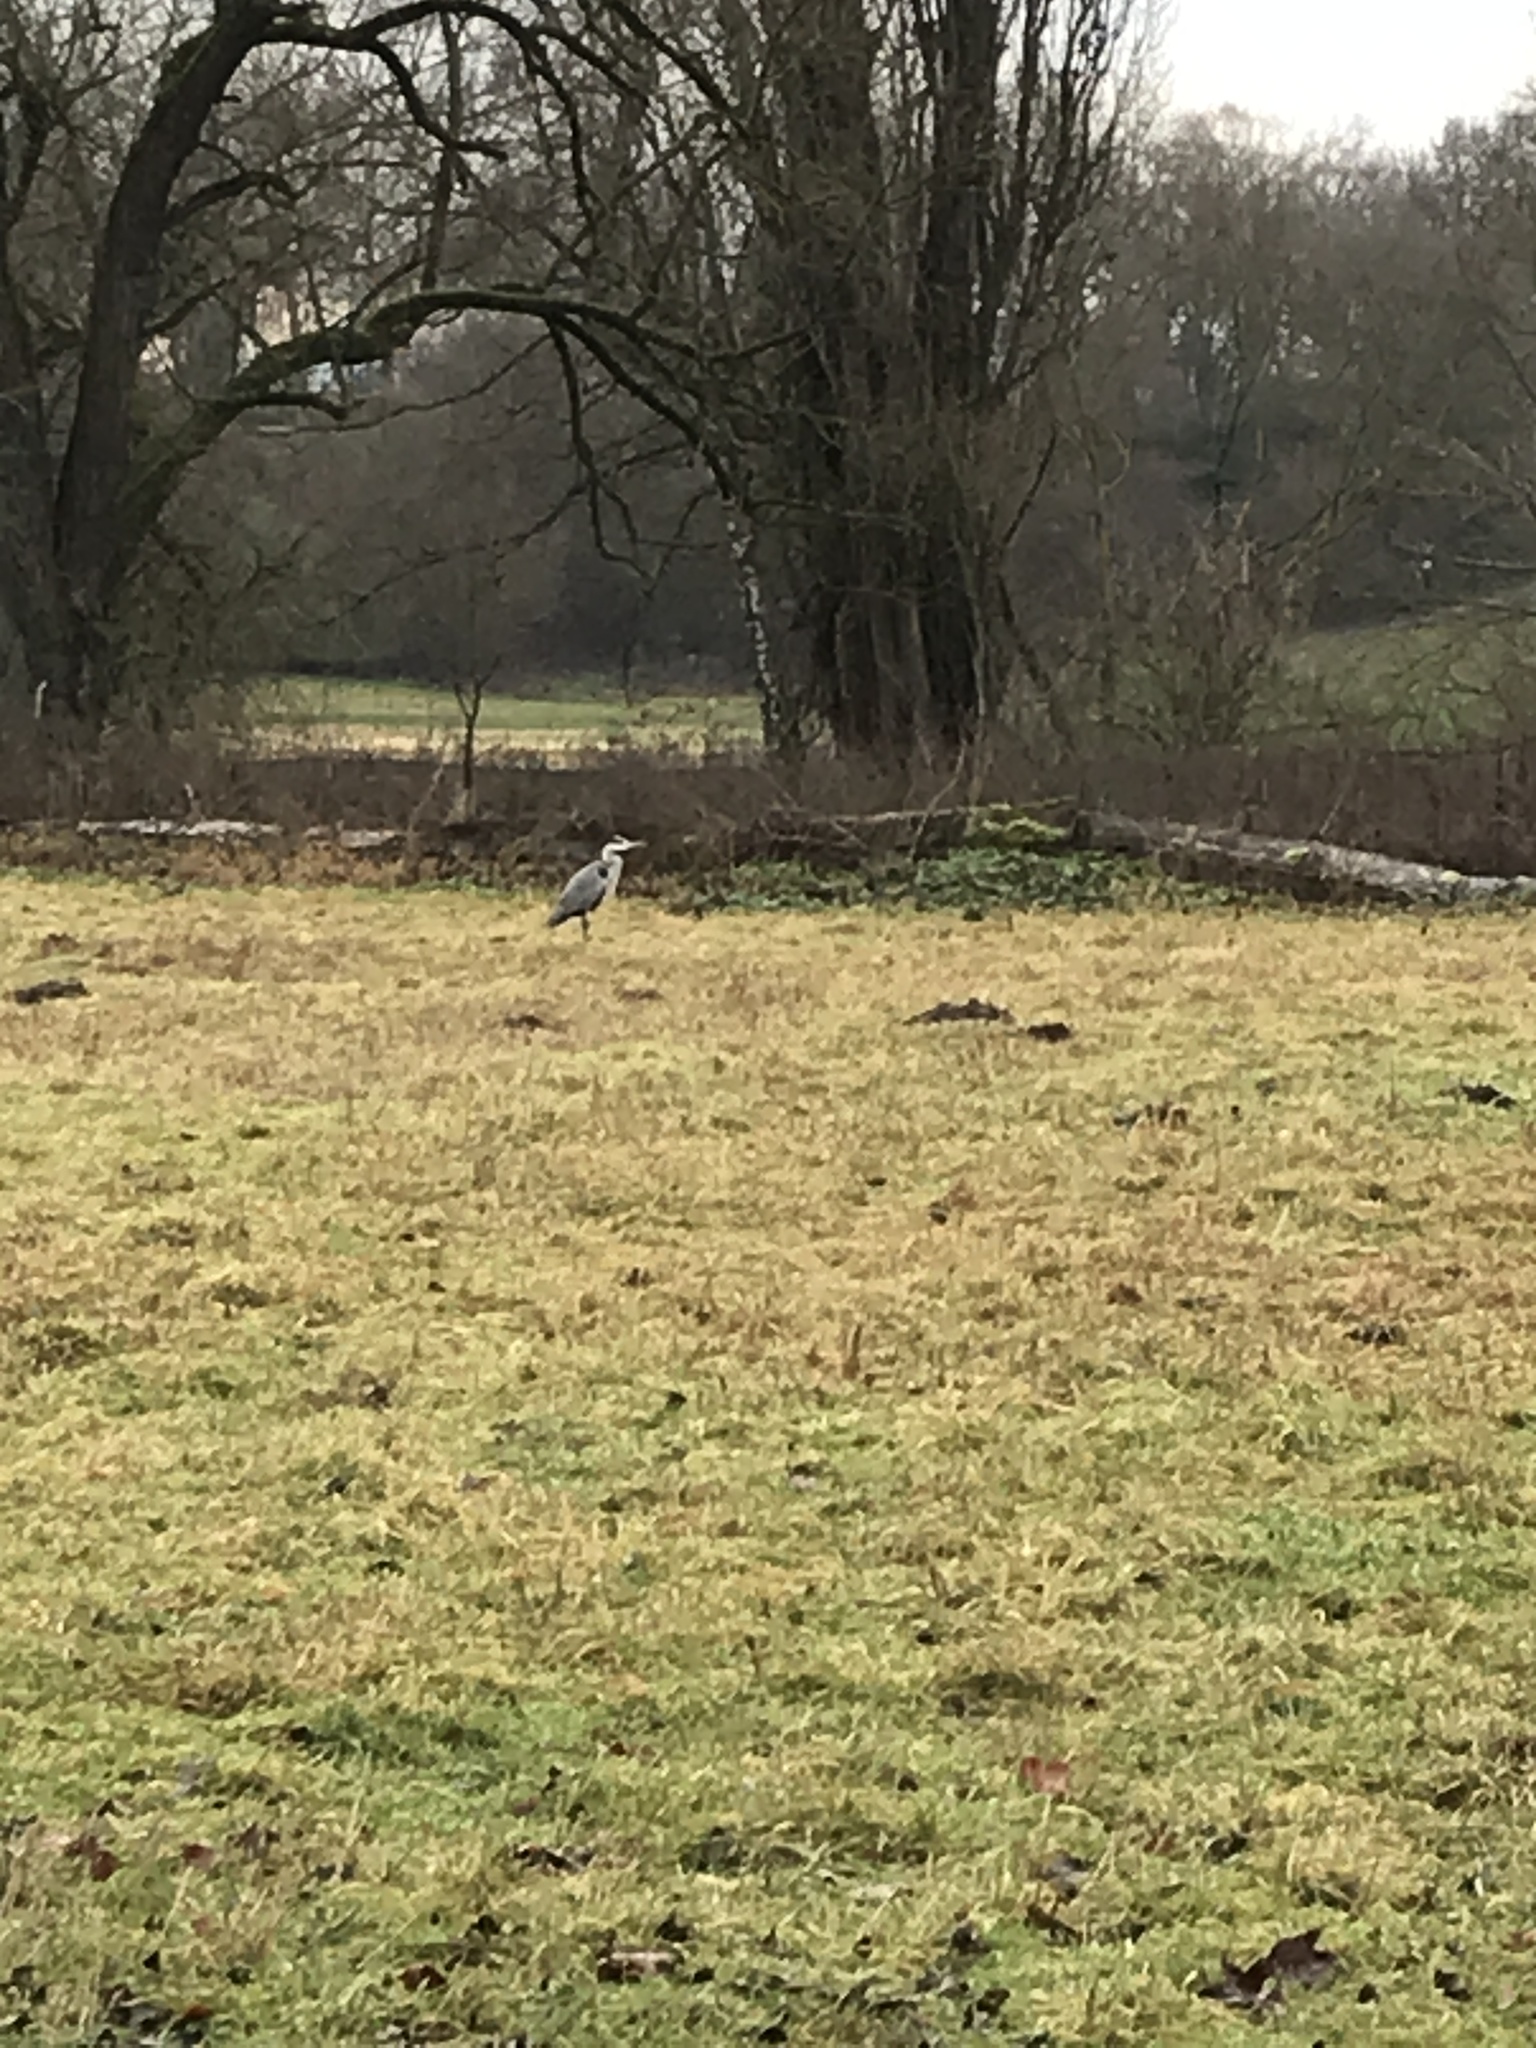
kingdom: Animalia
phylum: Chordata
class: Aves
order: Pelecaniformes
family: Ardeidae
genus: Ardea
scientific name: Ardea cinerea
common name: Grey heron
